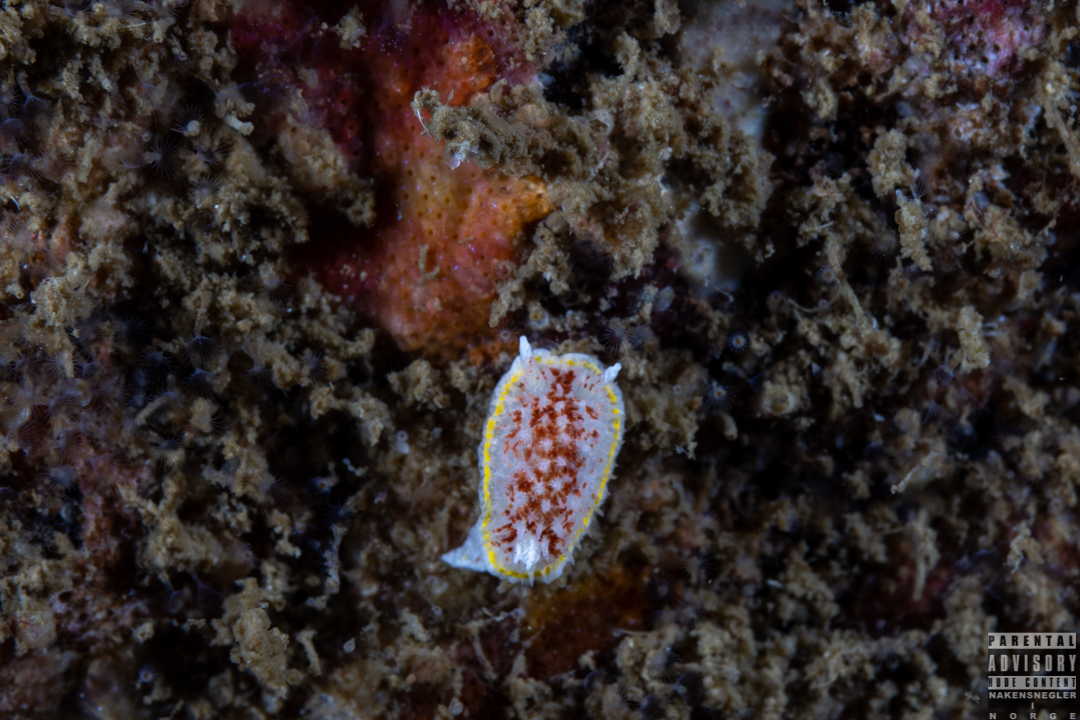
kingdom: Animalia
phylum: Mollusca
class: Gastropoda
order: Nudibranchia
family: Calycidorididae
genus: Diaphorodoris
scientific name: Diaphorodoris luteocincta
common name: Fried egg nudibranch
